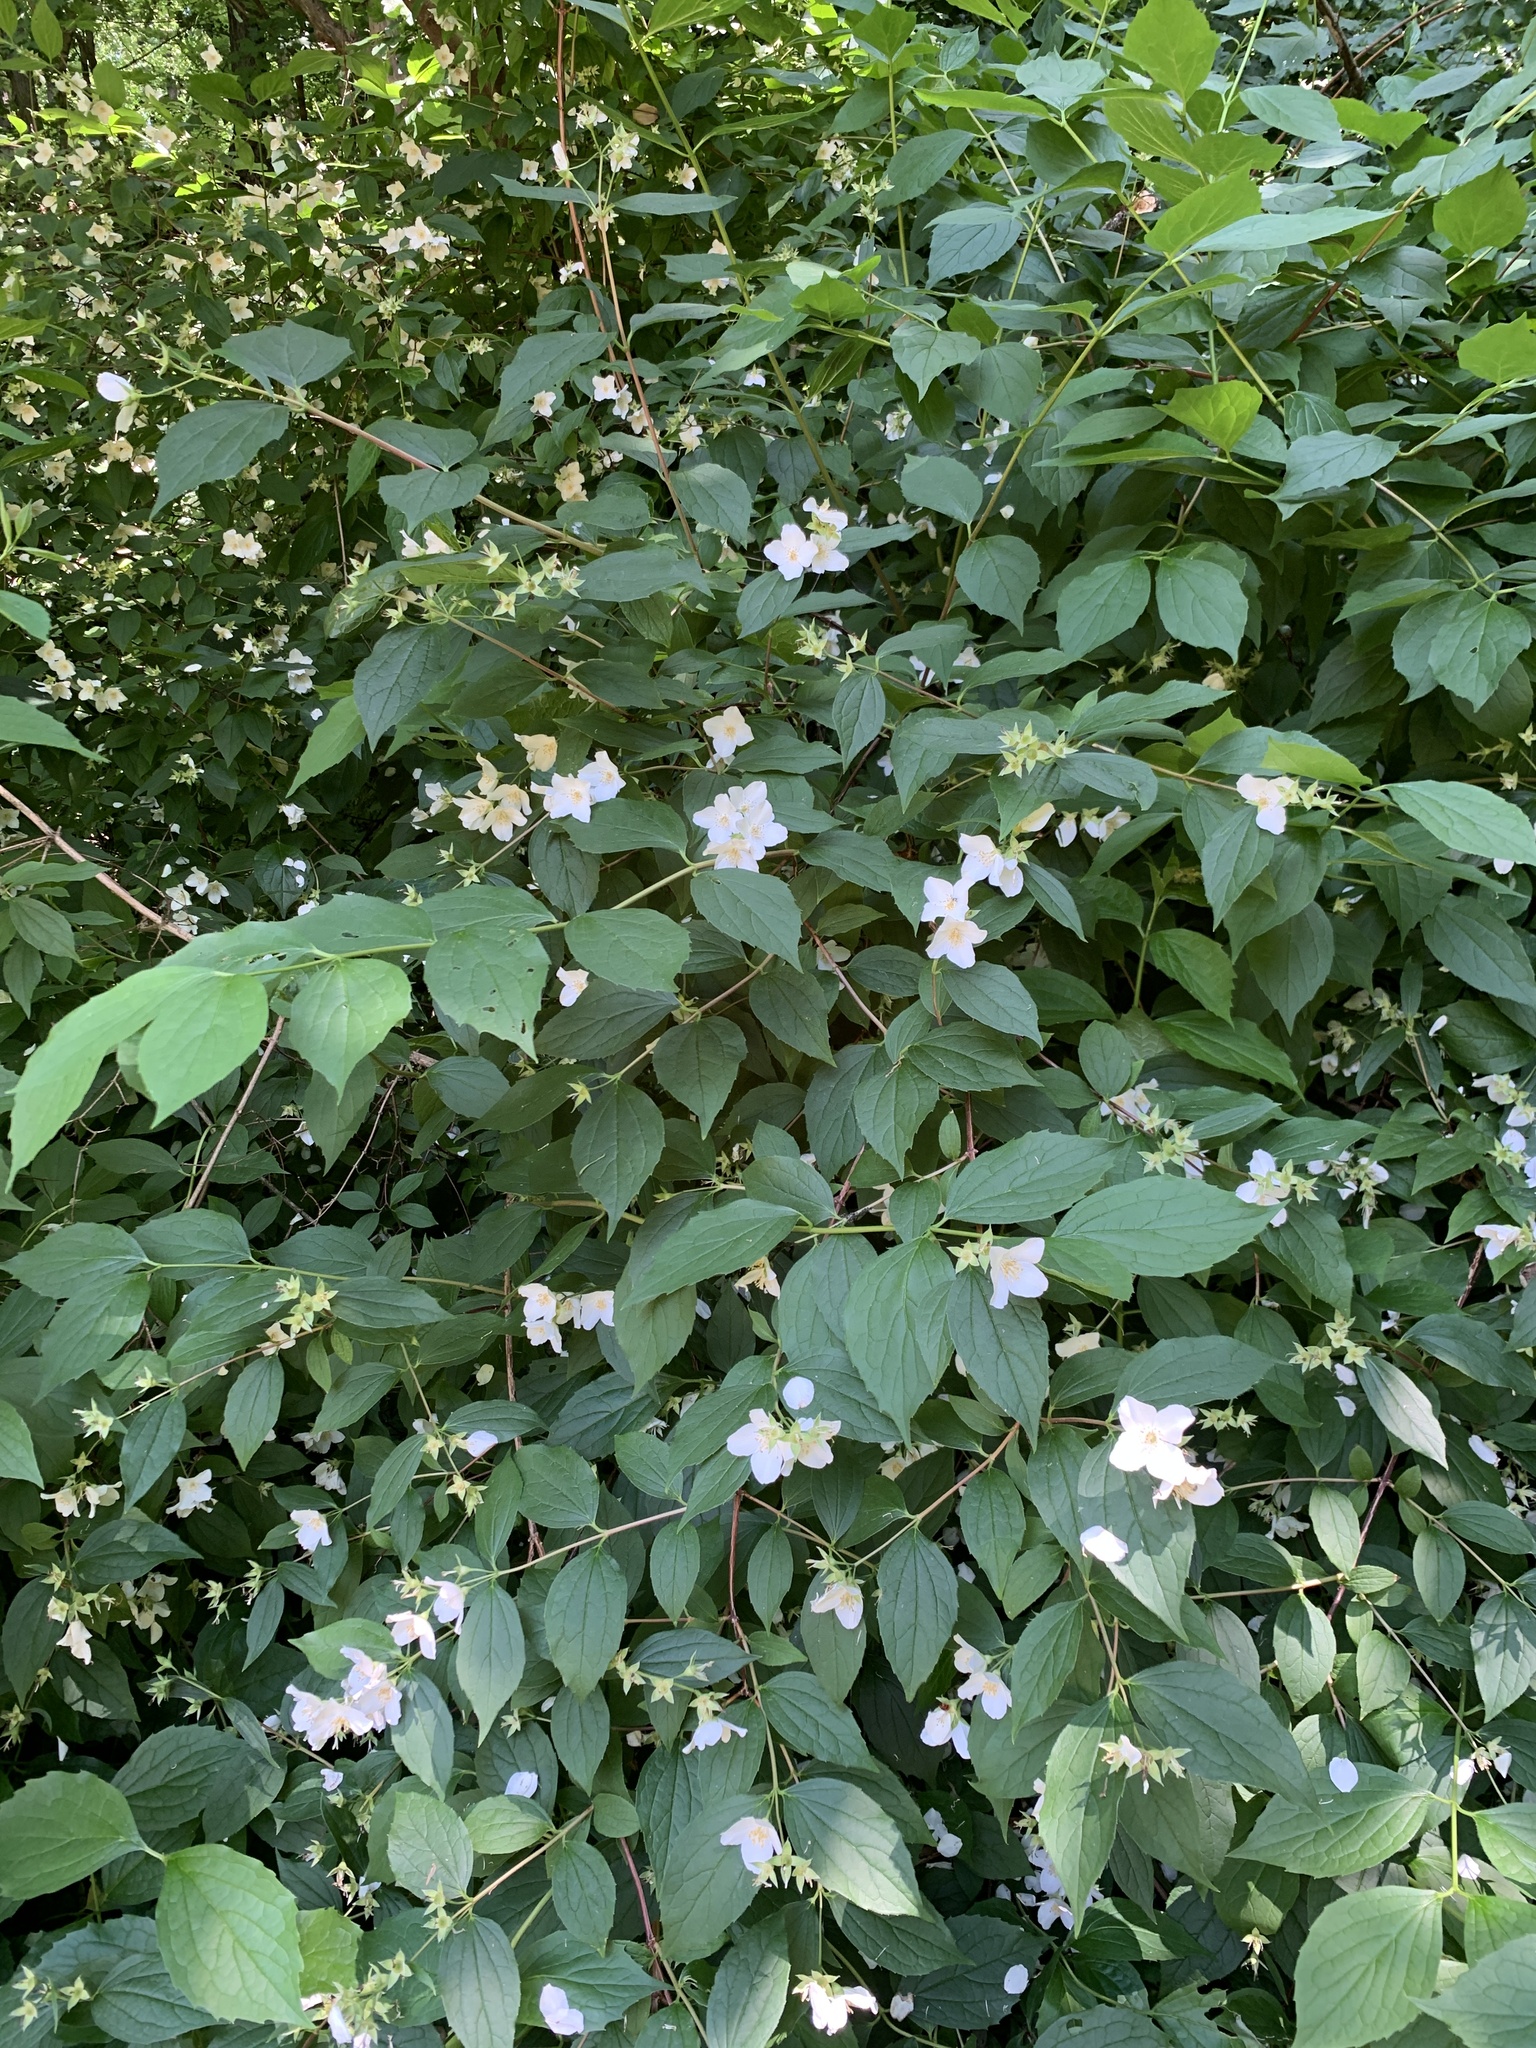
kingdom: Plantae
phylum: Tracheophyta
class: Magnoliopsida
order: Cornales
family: Hydrangeaceae
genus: Philadelphus
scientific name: Philadelphus coronarius
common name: Mock orange
